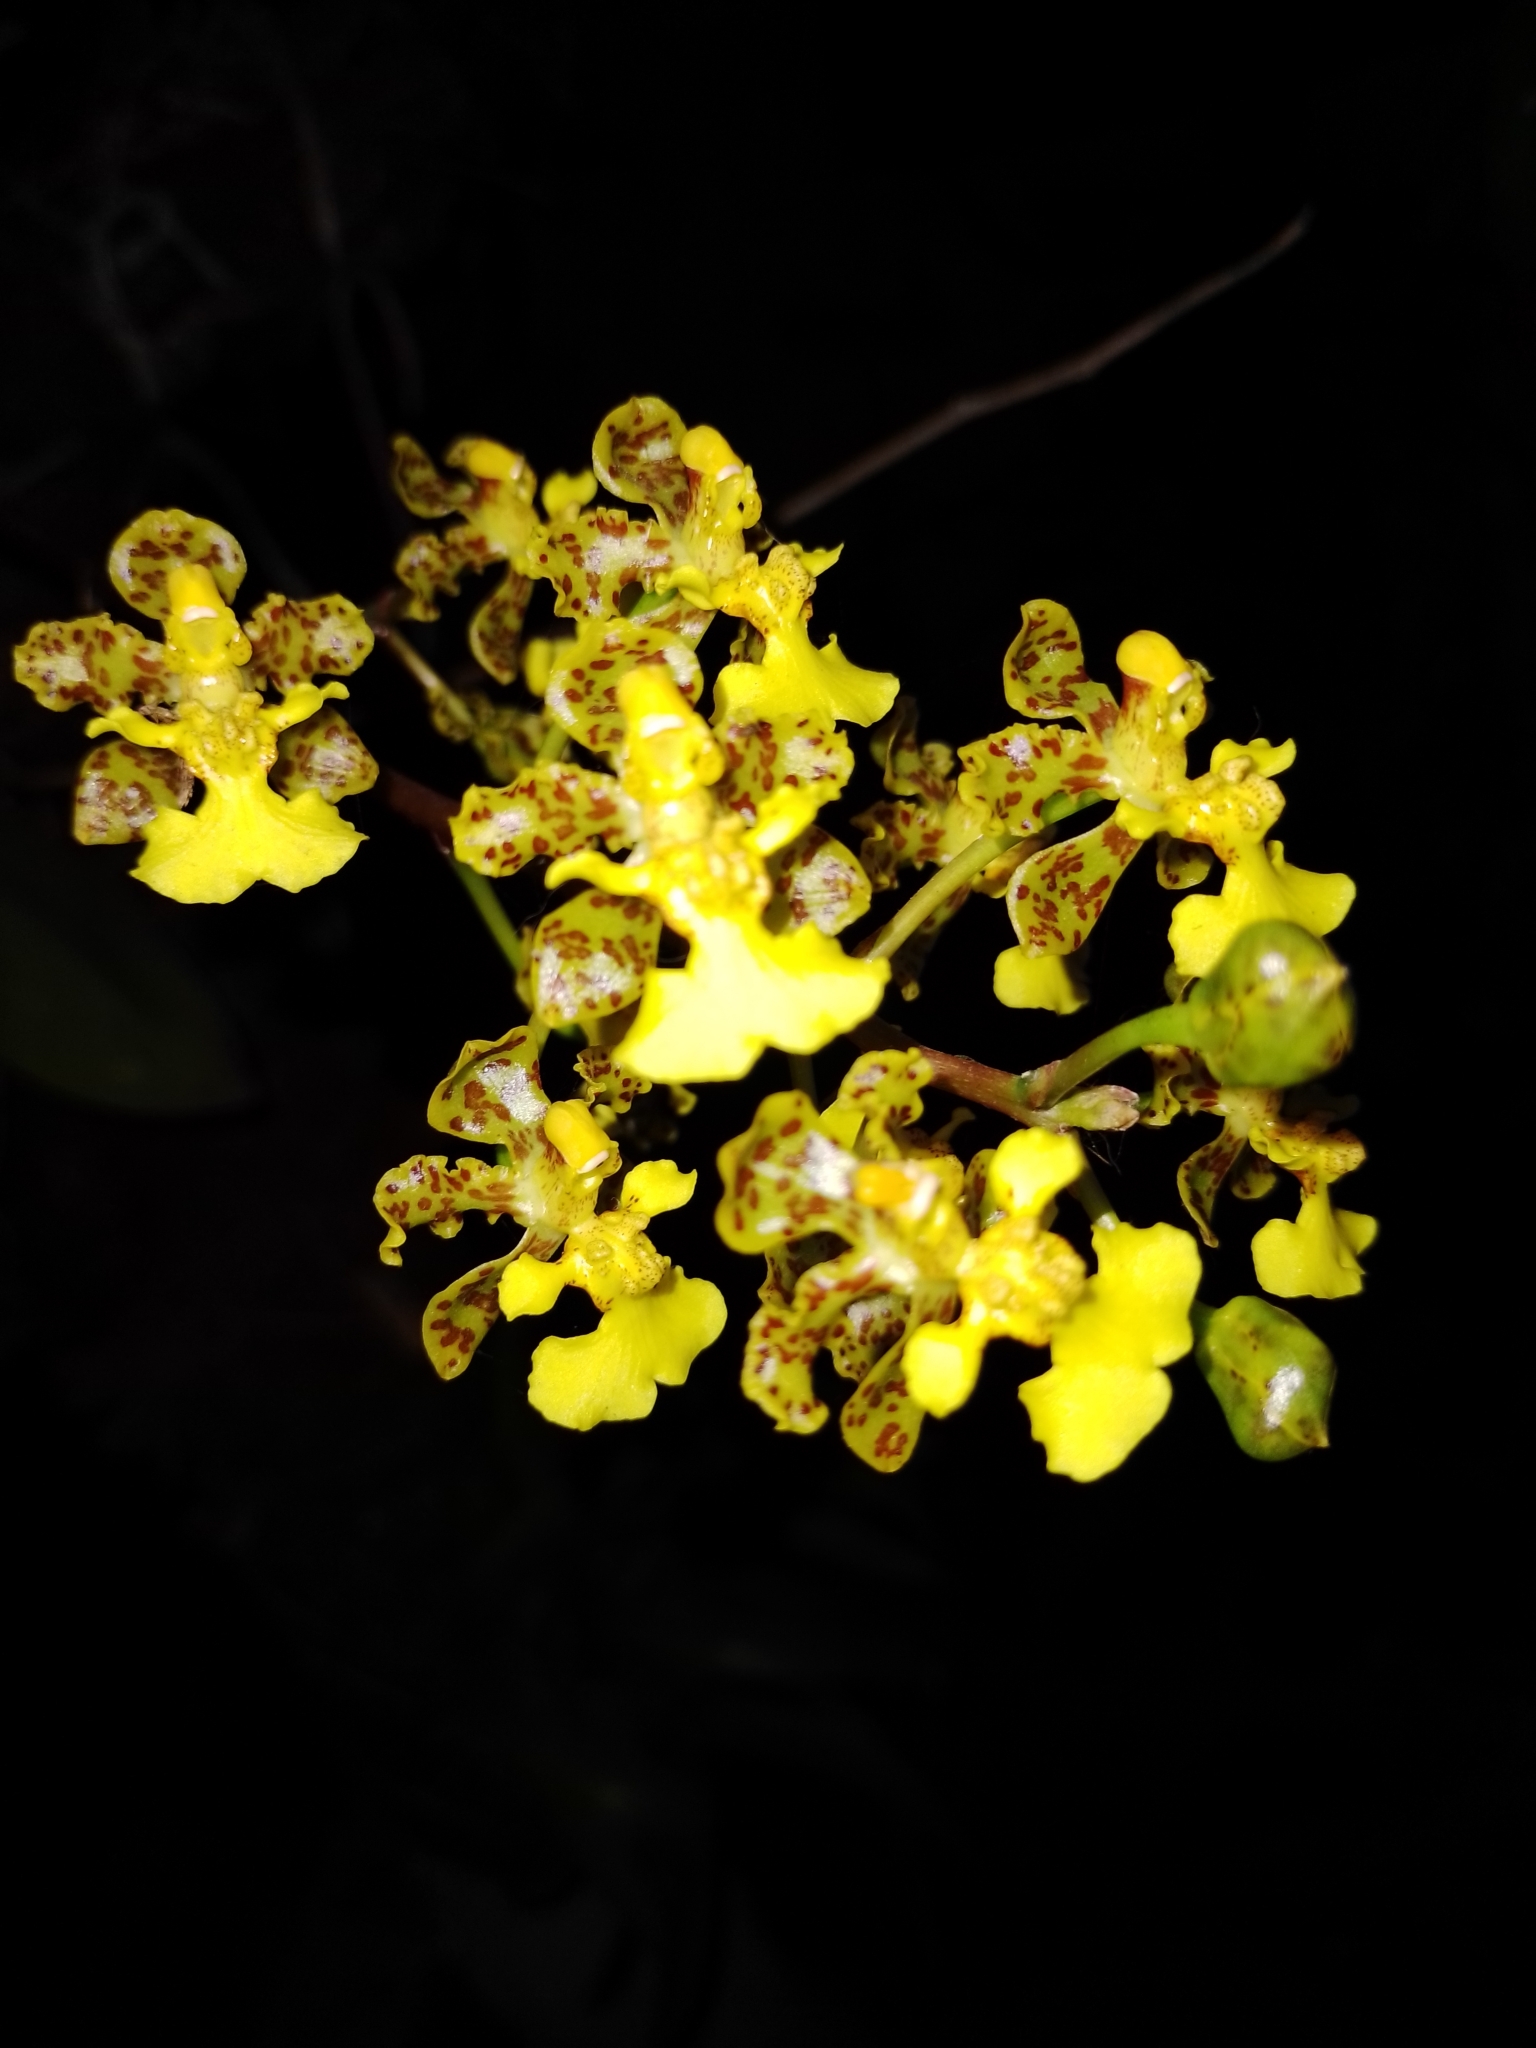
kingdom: Plantae
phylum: Tracheophyta
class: Liliopsida
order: Asparagales
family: Orchidaceae
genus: Trichocentrum
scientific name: Trichocentrum brachyphyllum
